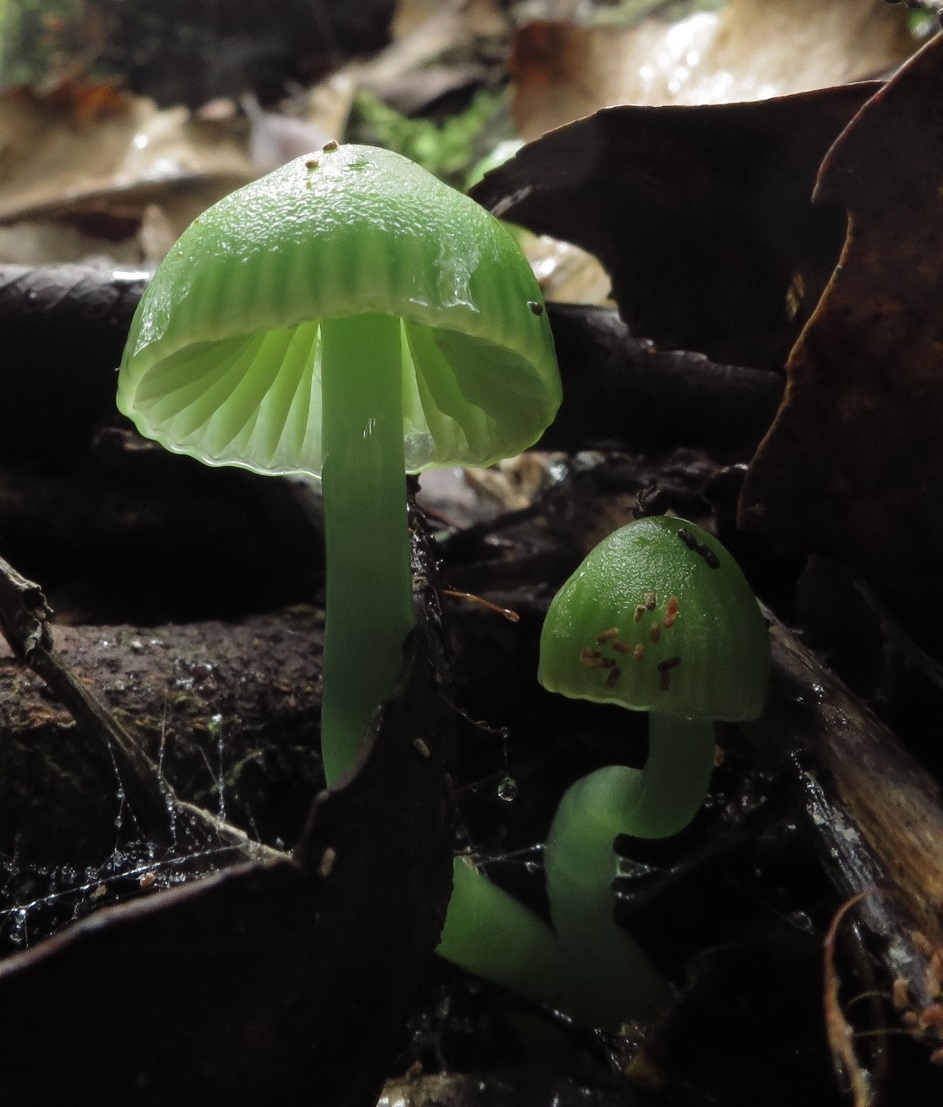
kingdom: Fungi
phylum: Basidiomycota
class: Agaricomycetes
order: Agaricales
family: Hygrophoraceae
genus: Gliophorus
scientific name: Gliophorus viridis
